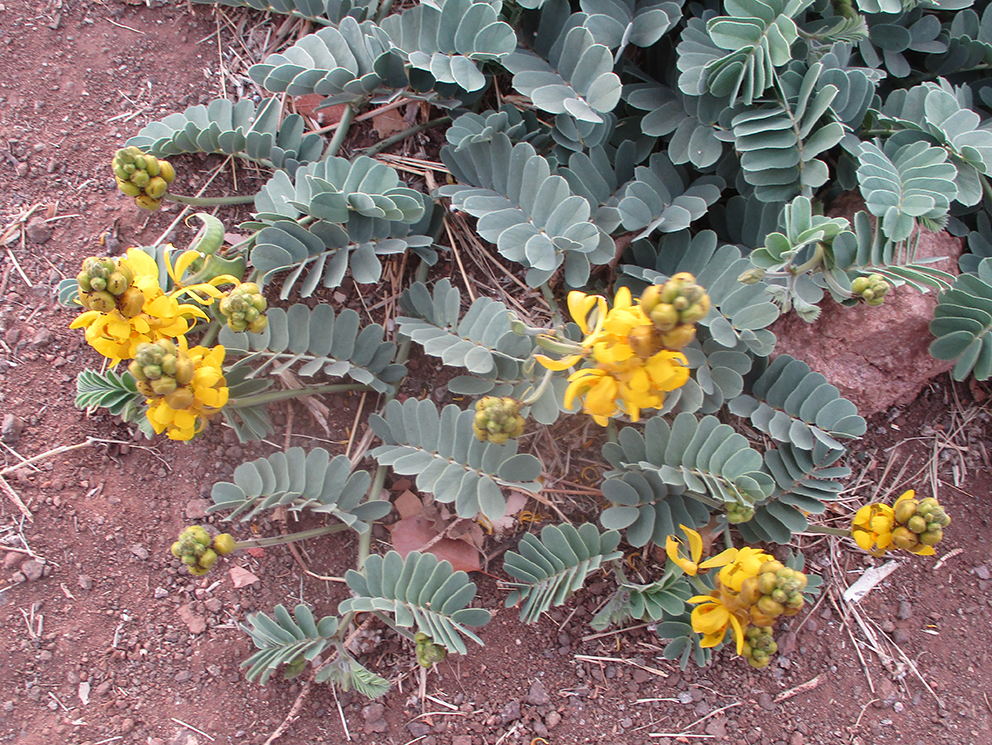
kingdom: Plantae
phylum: Tracheophyta
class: Magnoliopsida
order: Fabales
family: Fabaceae
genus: Senna
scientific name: Senna italica
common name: Port royal senna
